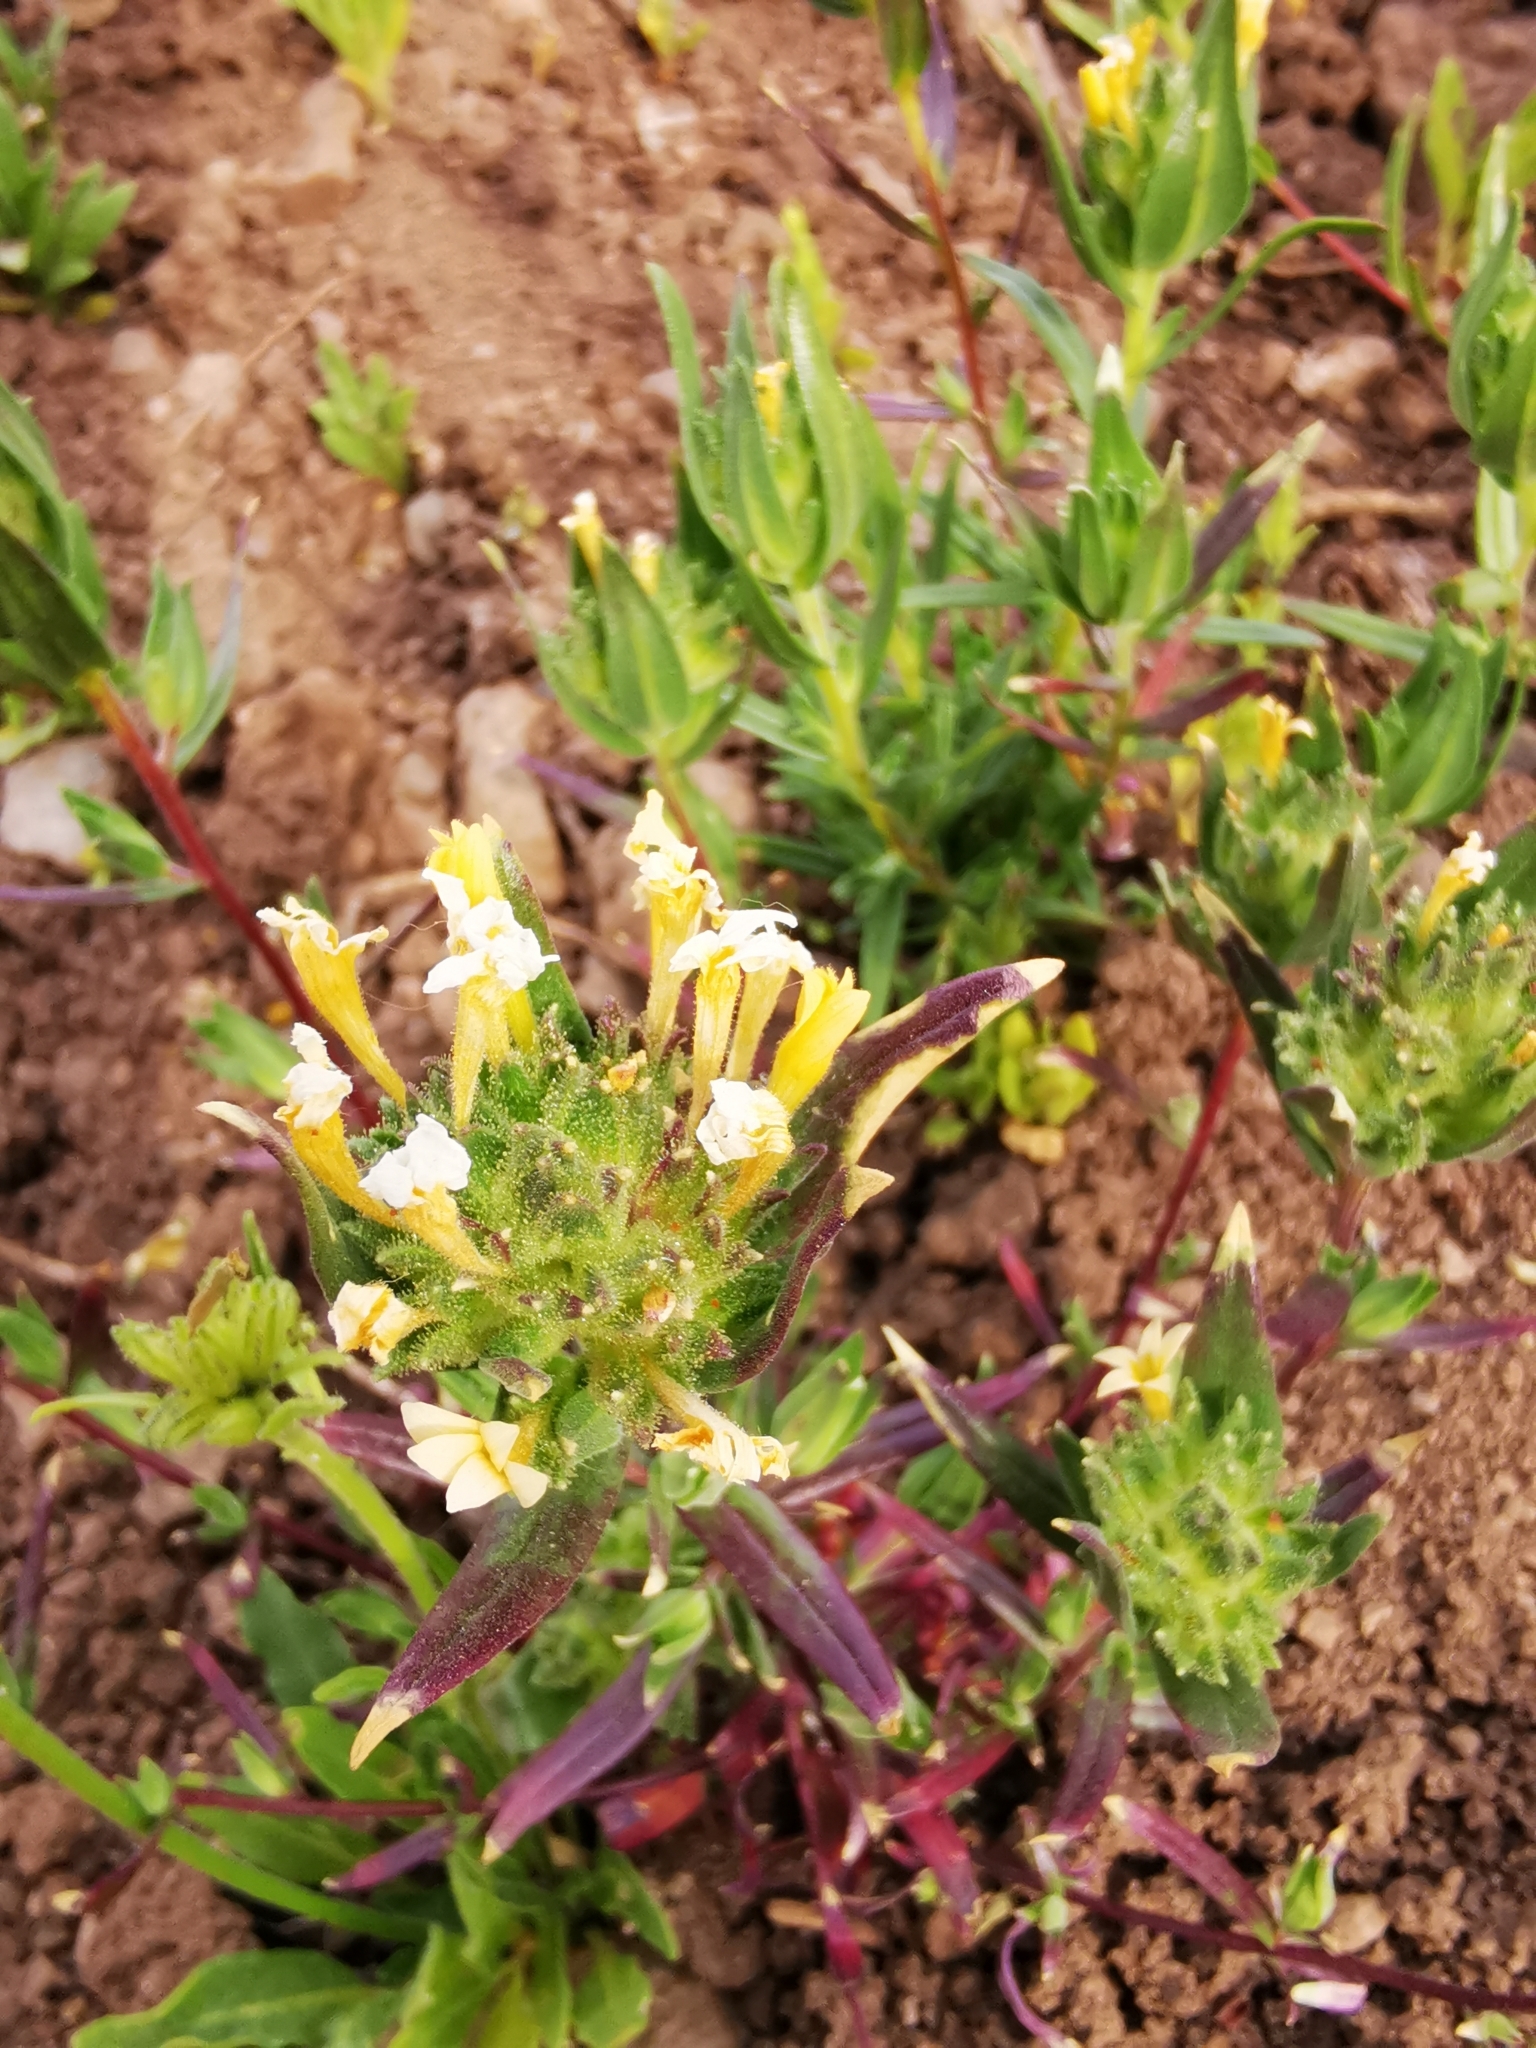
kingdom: Plantae
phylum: Tracheophyta
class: Magnoliopsida
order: Ericales
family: Polemoniaceae
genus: Collomia
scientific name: Collomia biflora
